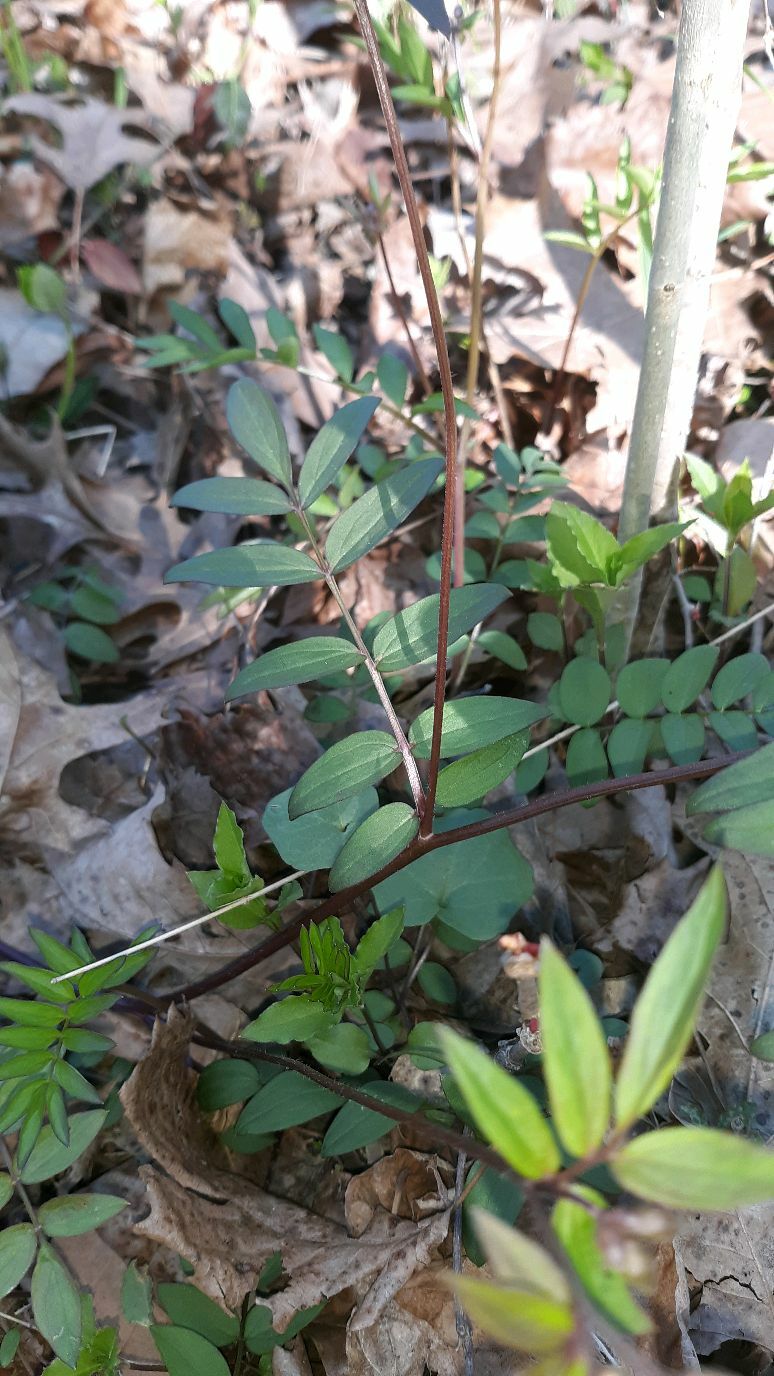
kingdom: Plantae
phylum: Tracheophyta
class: Magnoliopsida
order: Ericales
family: Polemoniaceae
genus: Polemonium
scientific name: Polemonium reptans
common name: Creeping jacob's-ladder
